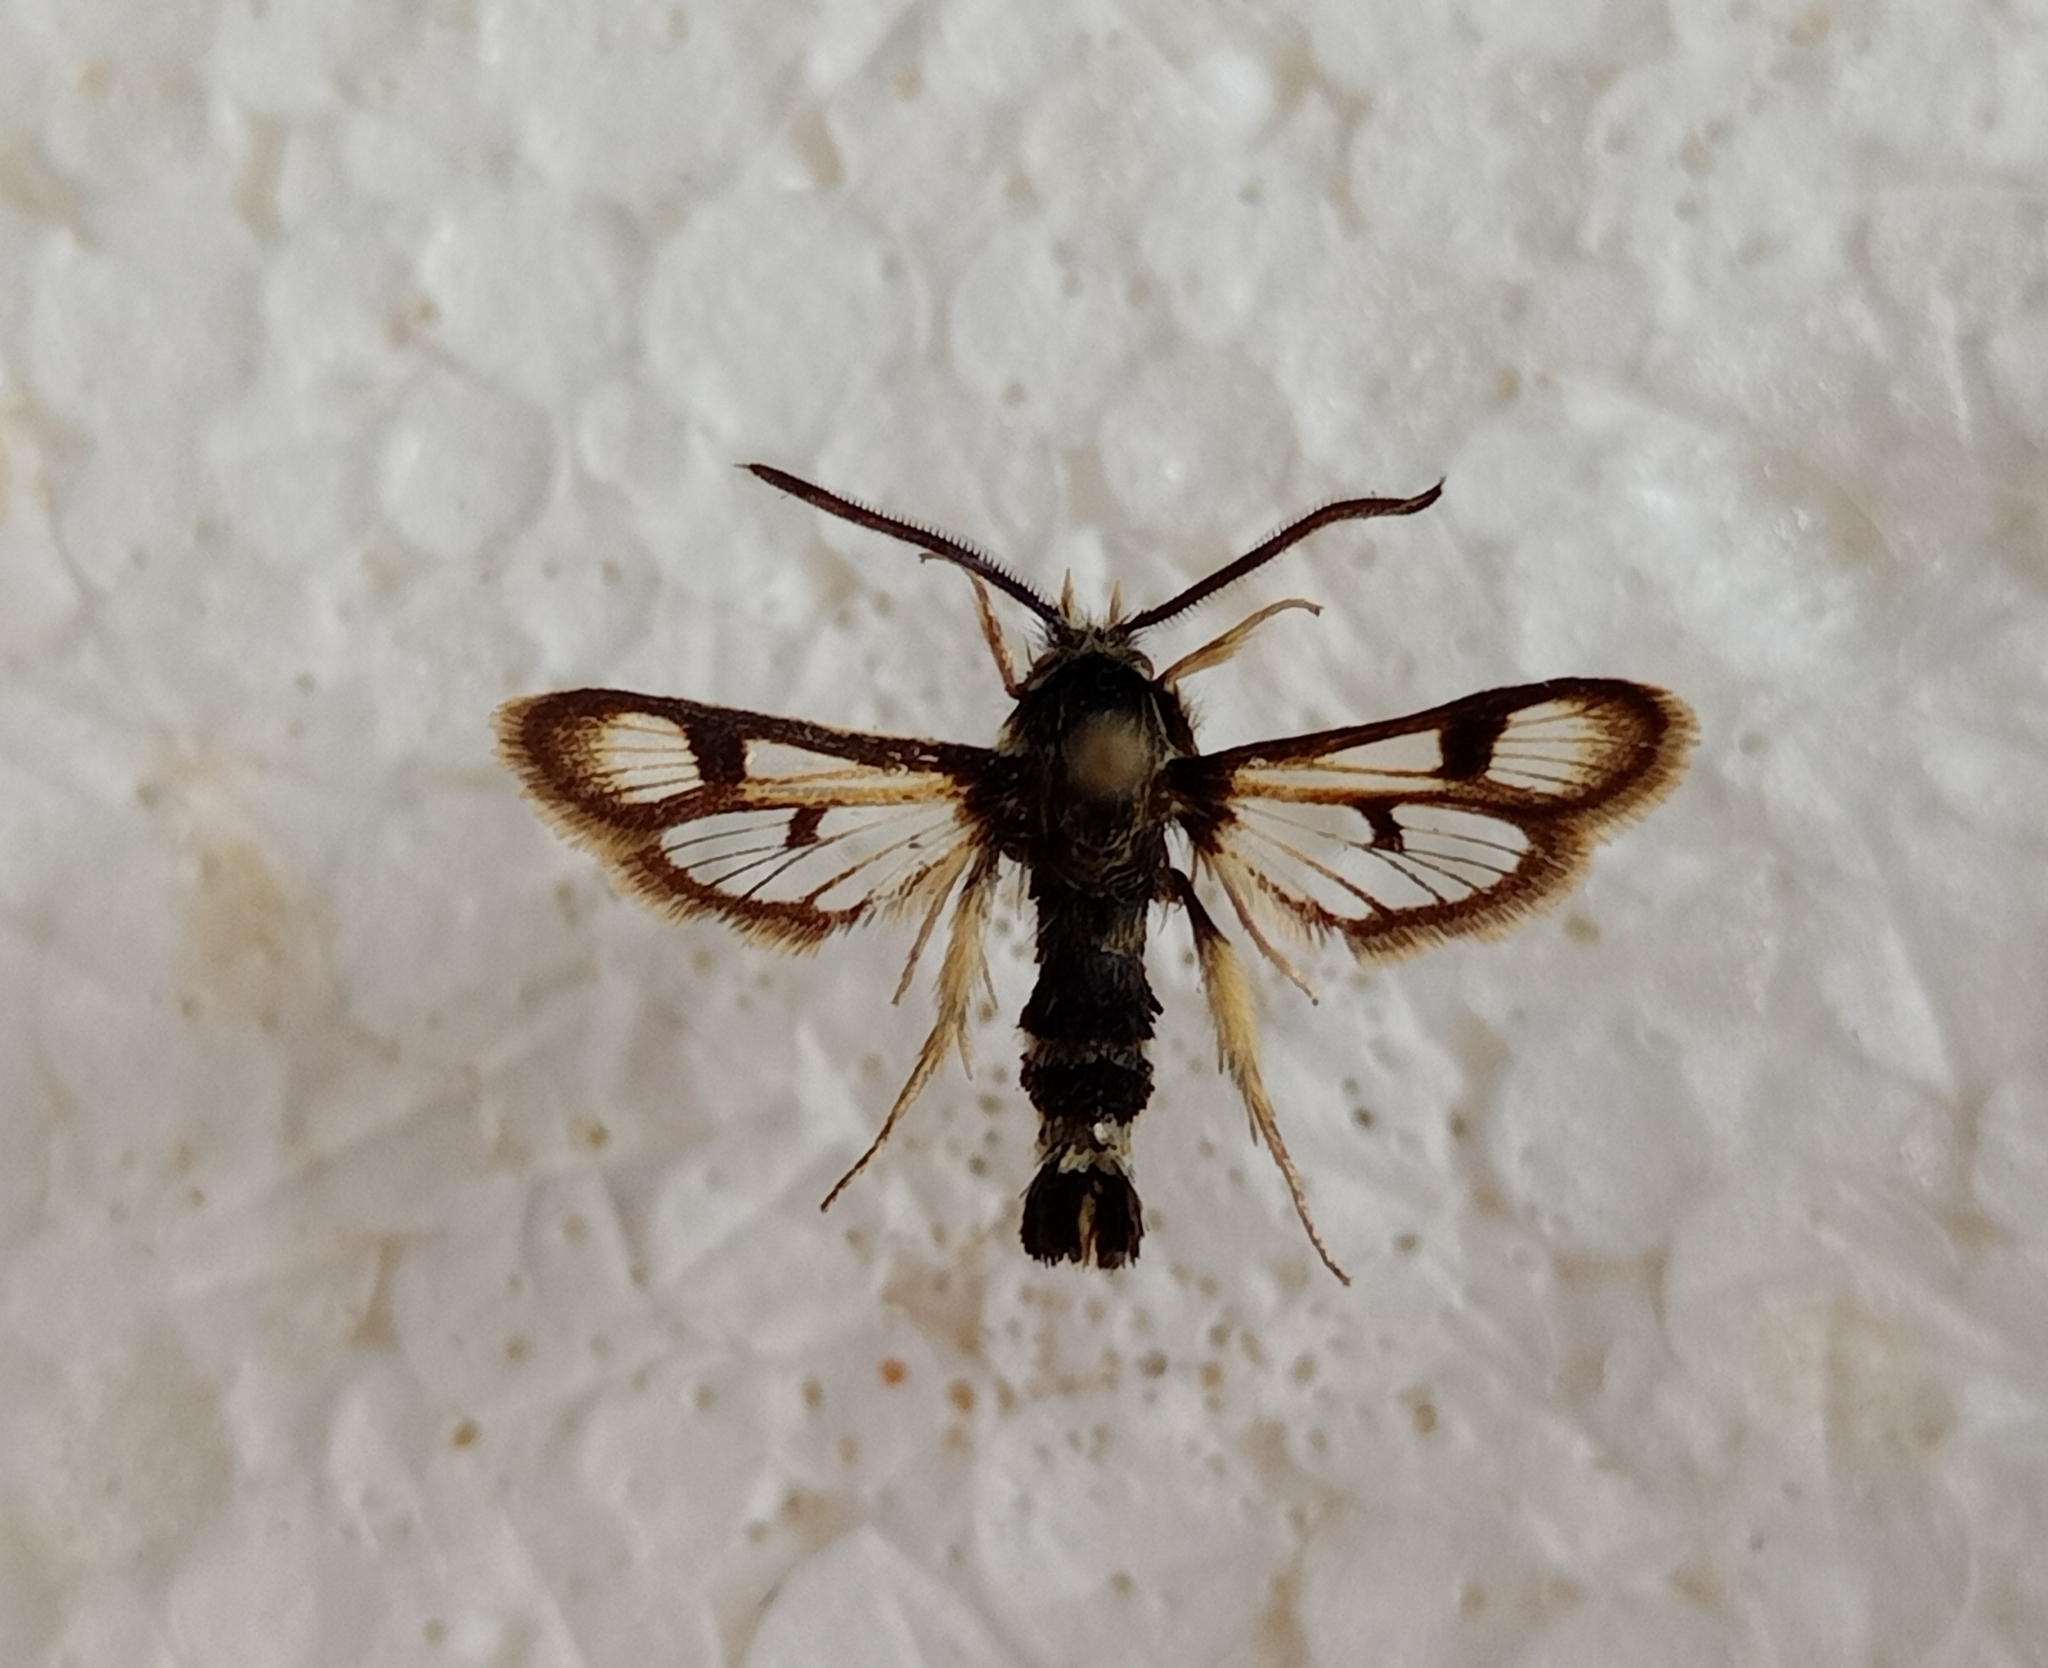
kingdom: Animalia
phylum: Arthropoda
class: Insecta
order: Lepidoptera
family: Sesiidae
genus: Euhagena
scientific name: Euhagena palariformis
